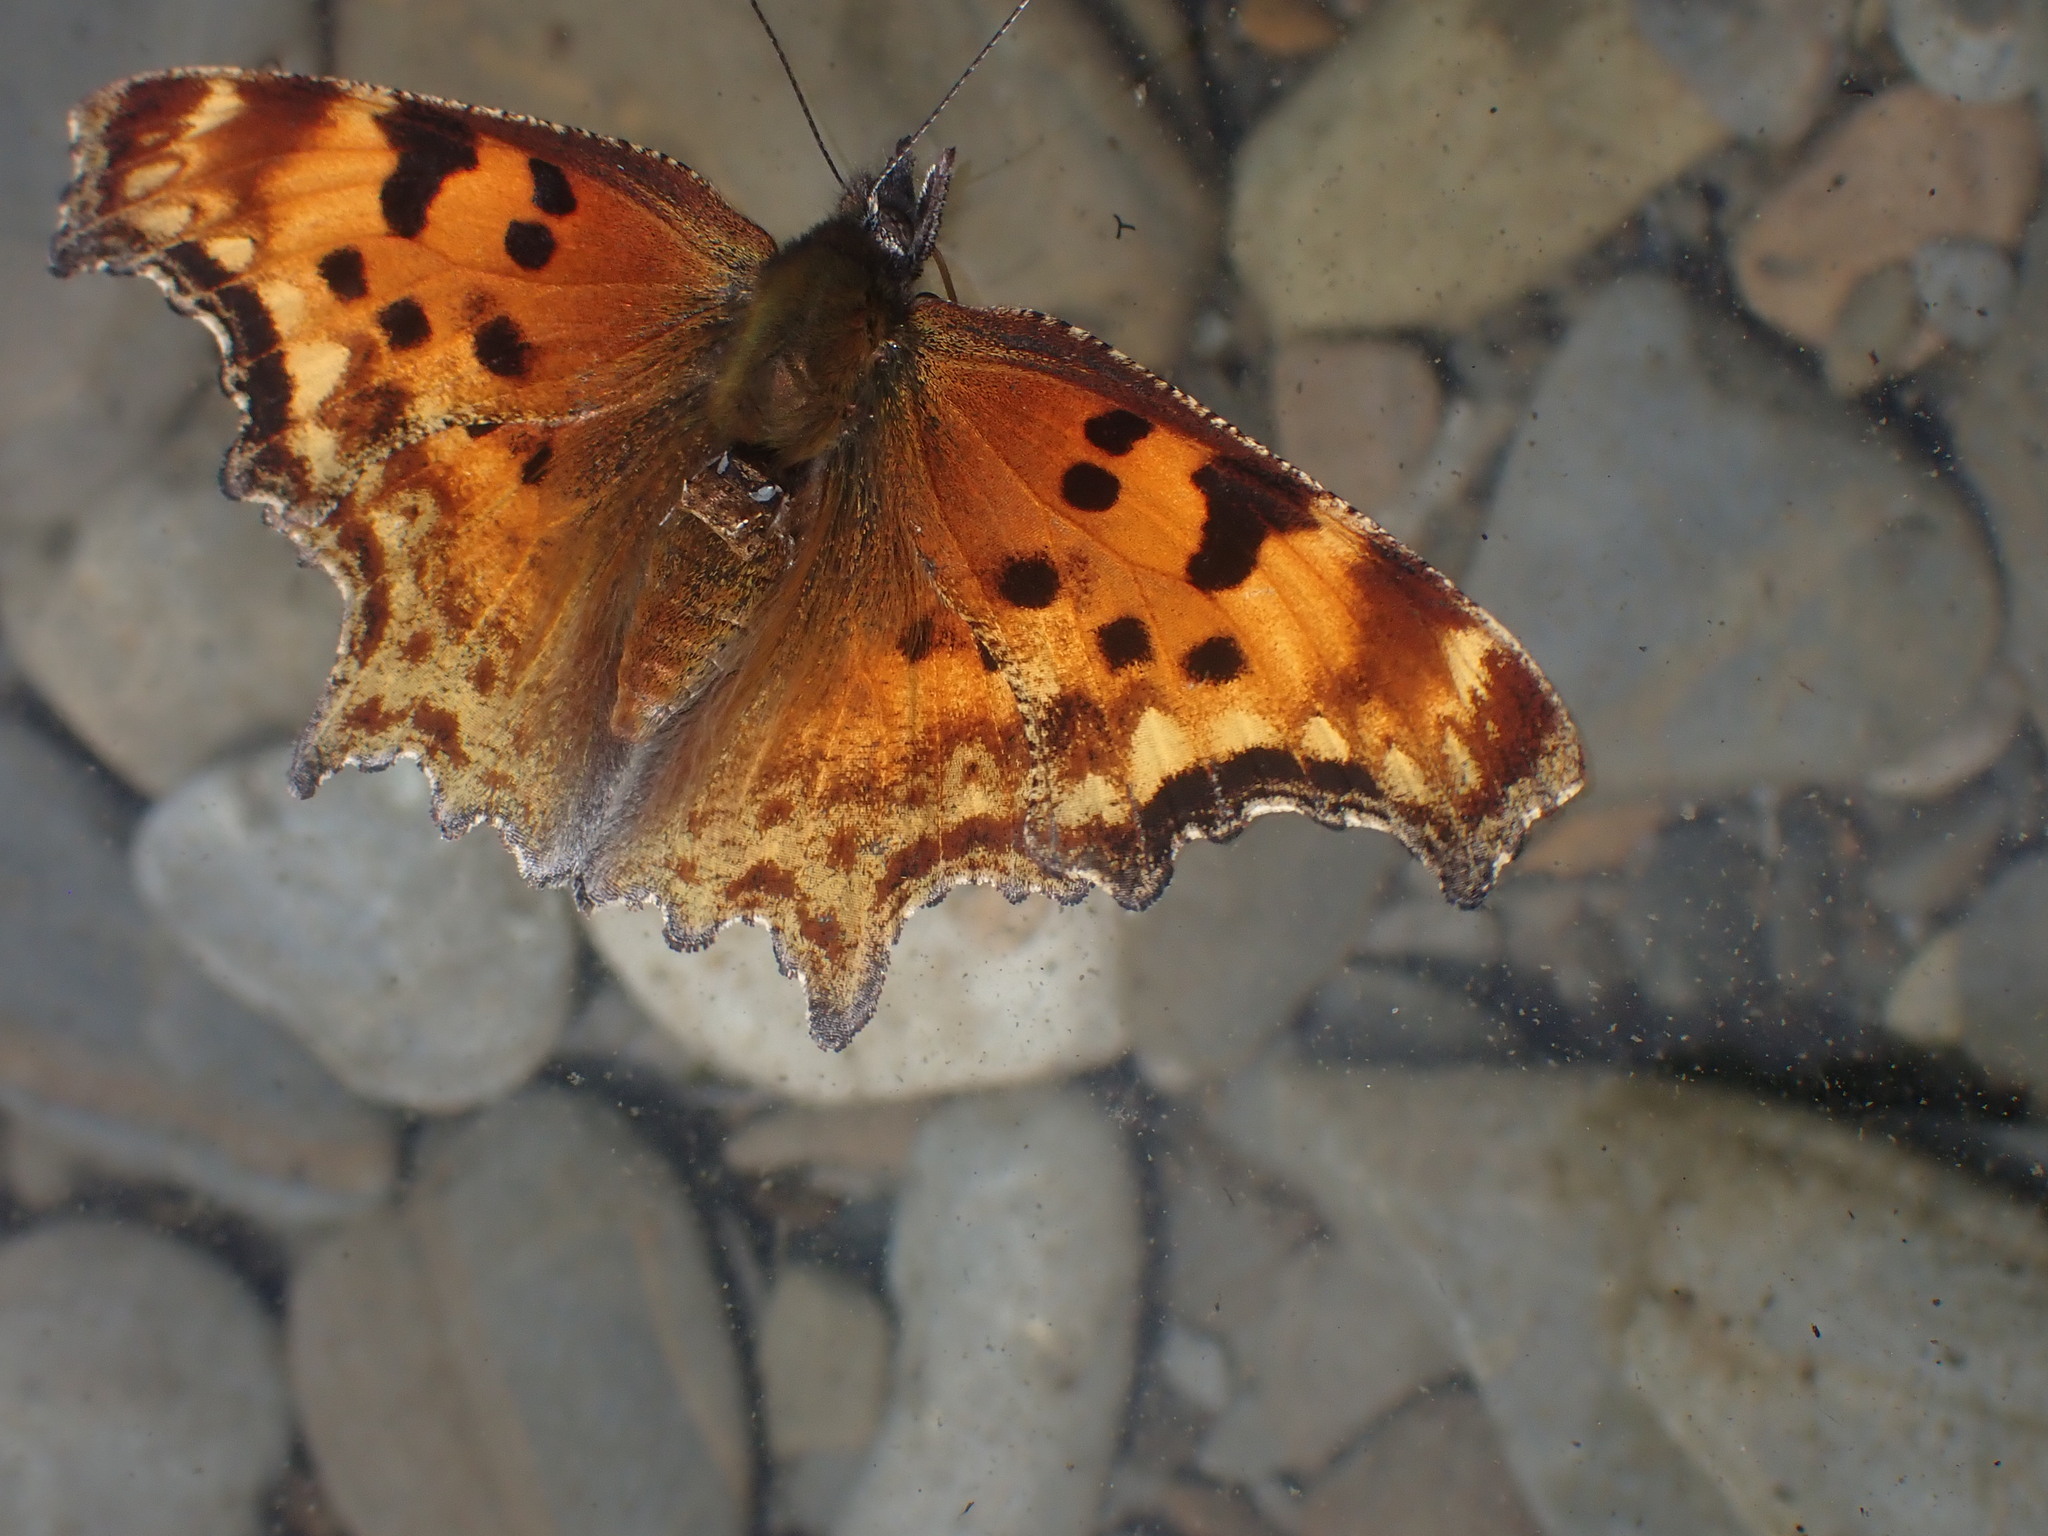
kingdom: Animalia
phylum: Arthropoda
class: Insecta
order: Lepidoptera
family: Nymphalidae
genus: Polygonia
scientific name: Polygonia gracilis
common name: Hoary comma
